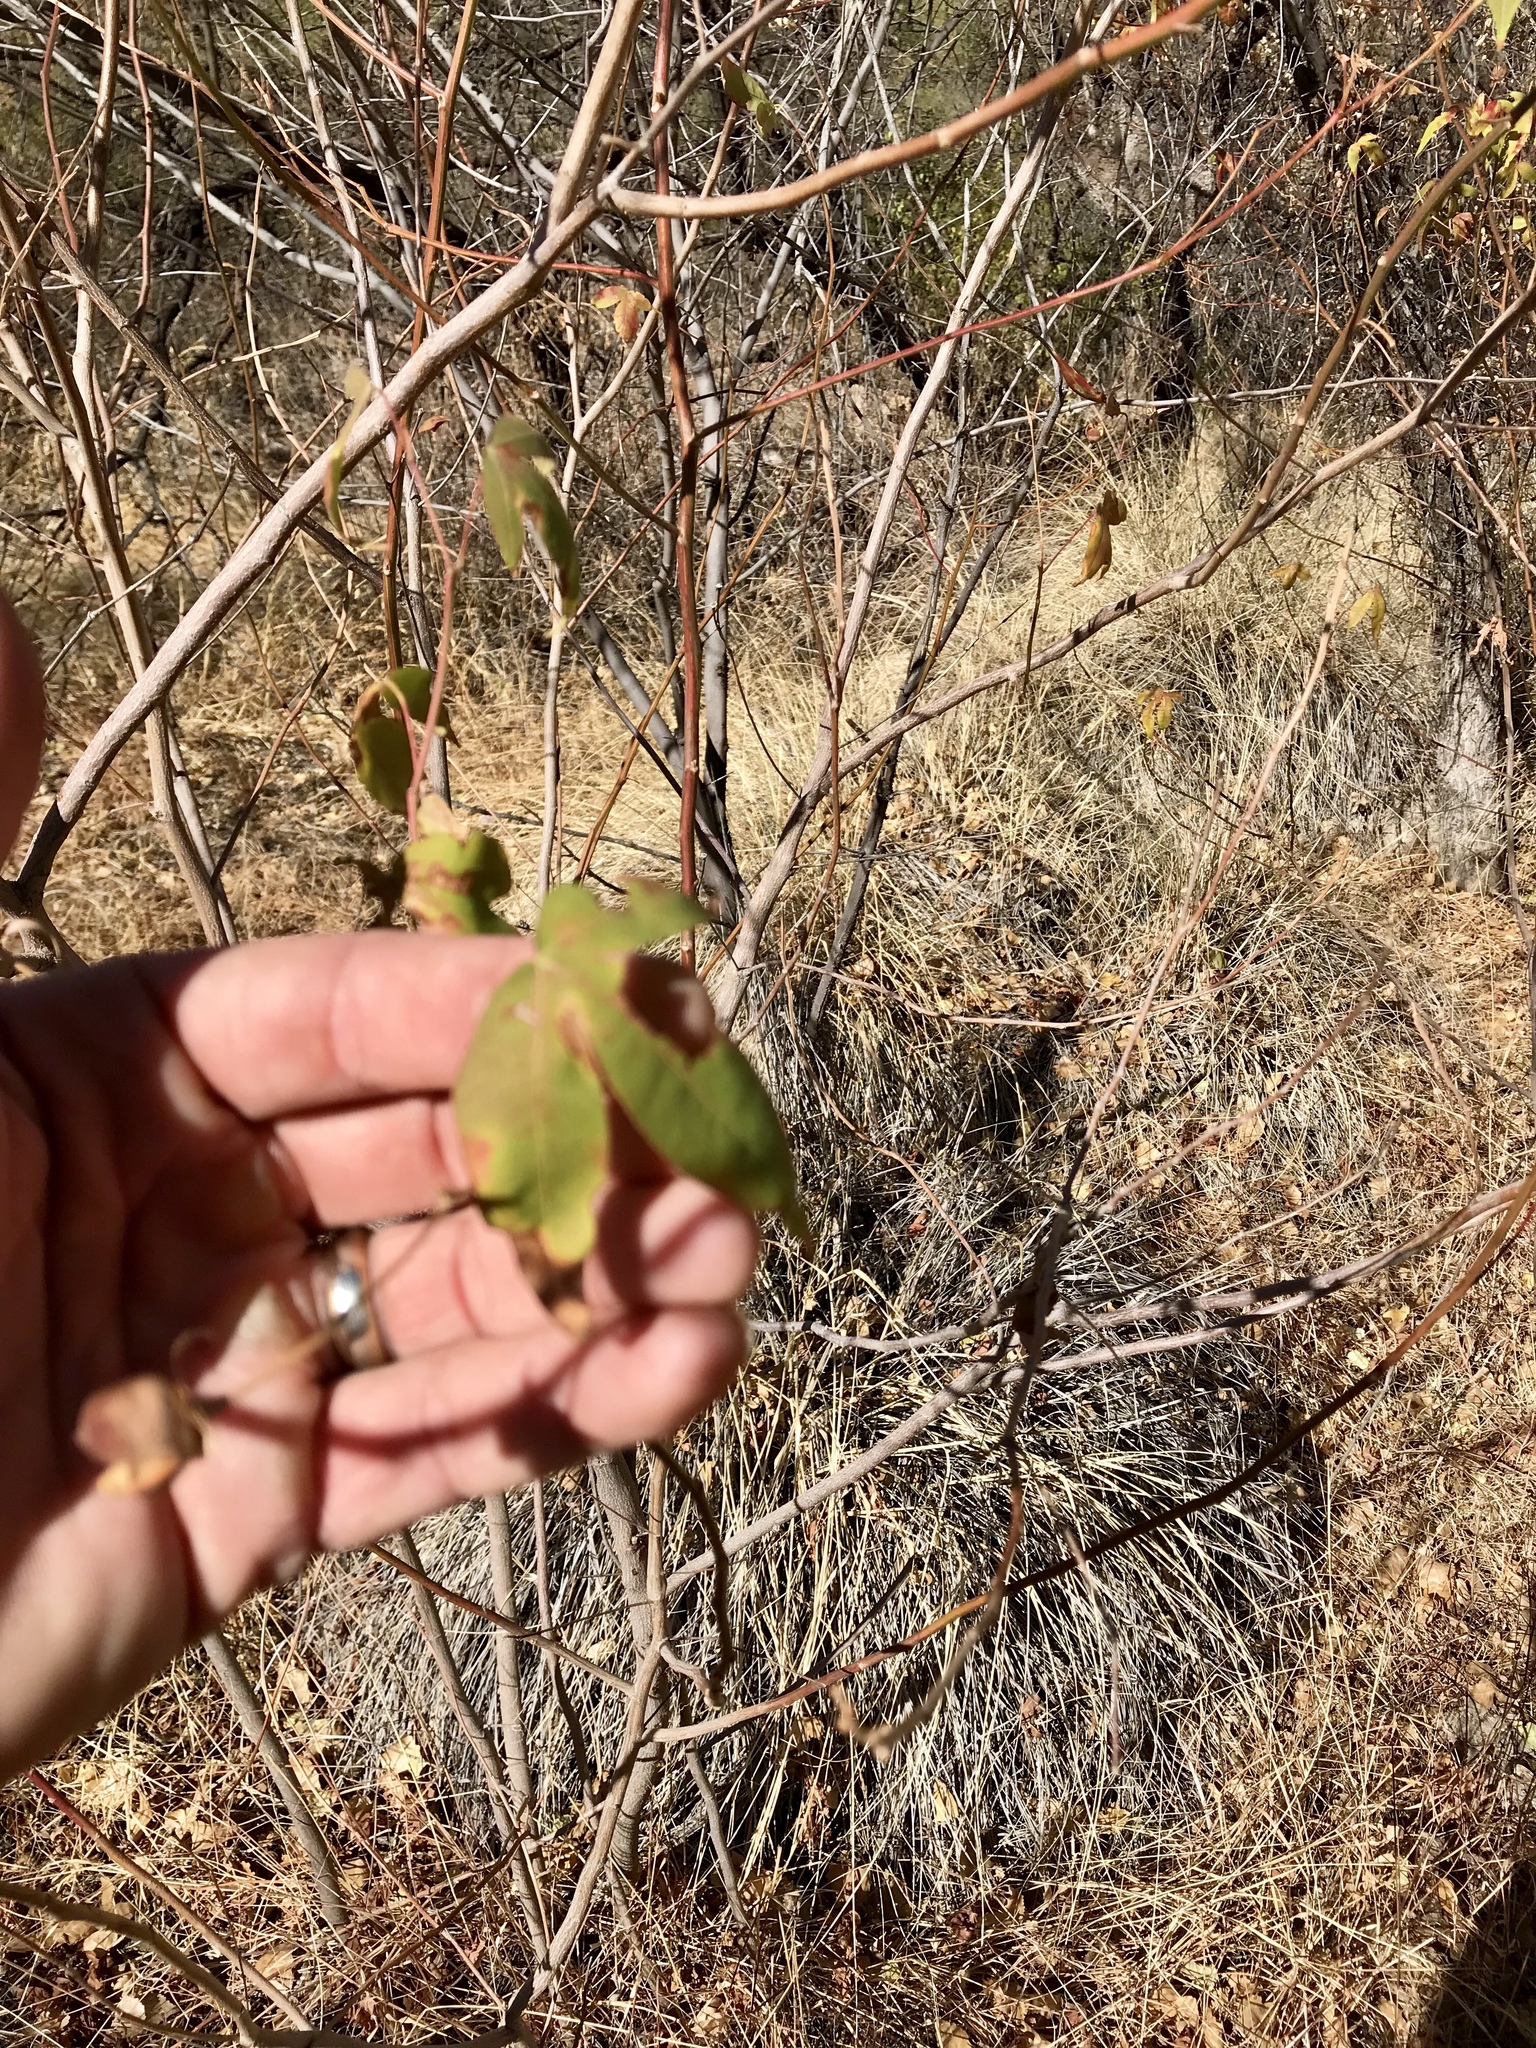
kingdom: Plantae
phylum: Tracheophyta
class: Magnoliopsida
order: Malvales
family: Malvaceae
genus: Gossypium
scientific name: Gossypium thurberi
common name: Desert cotton
